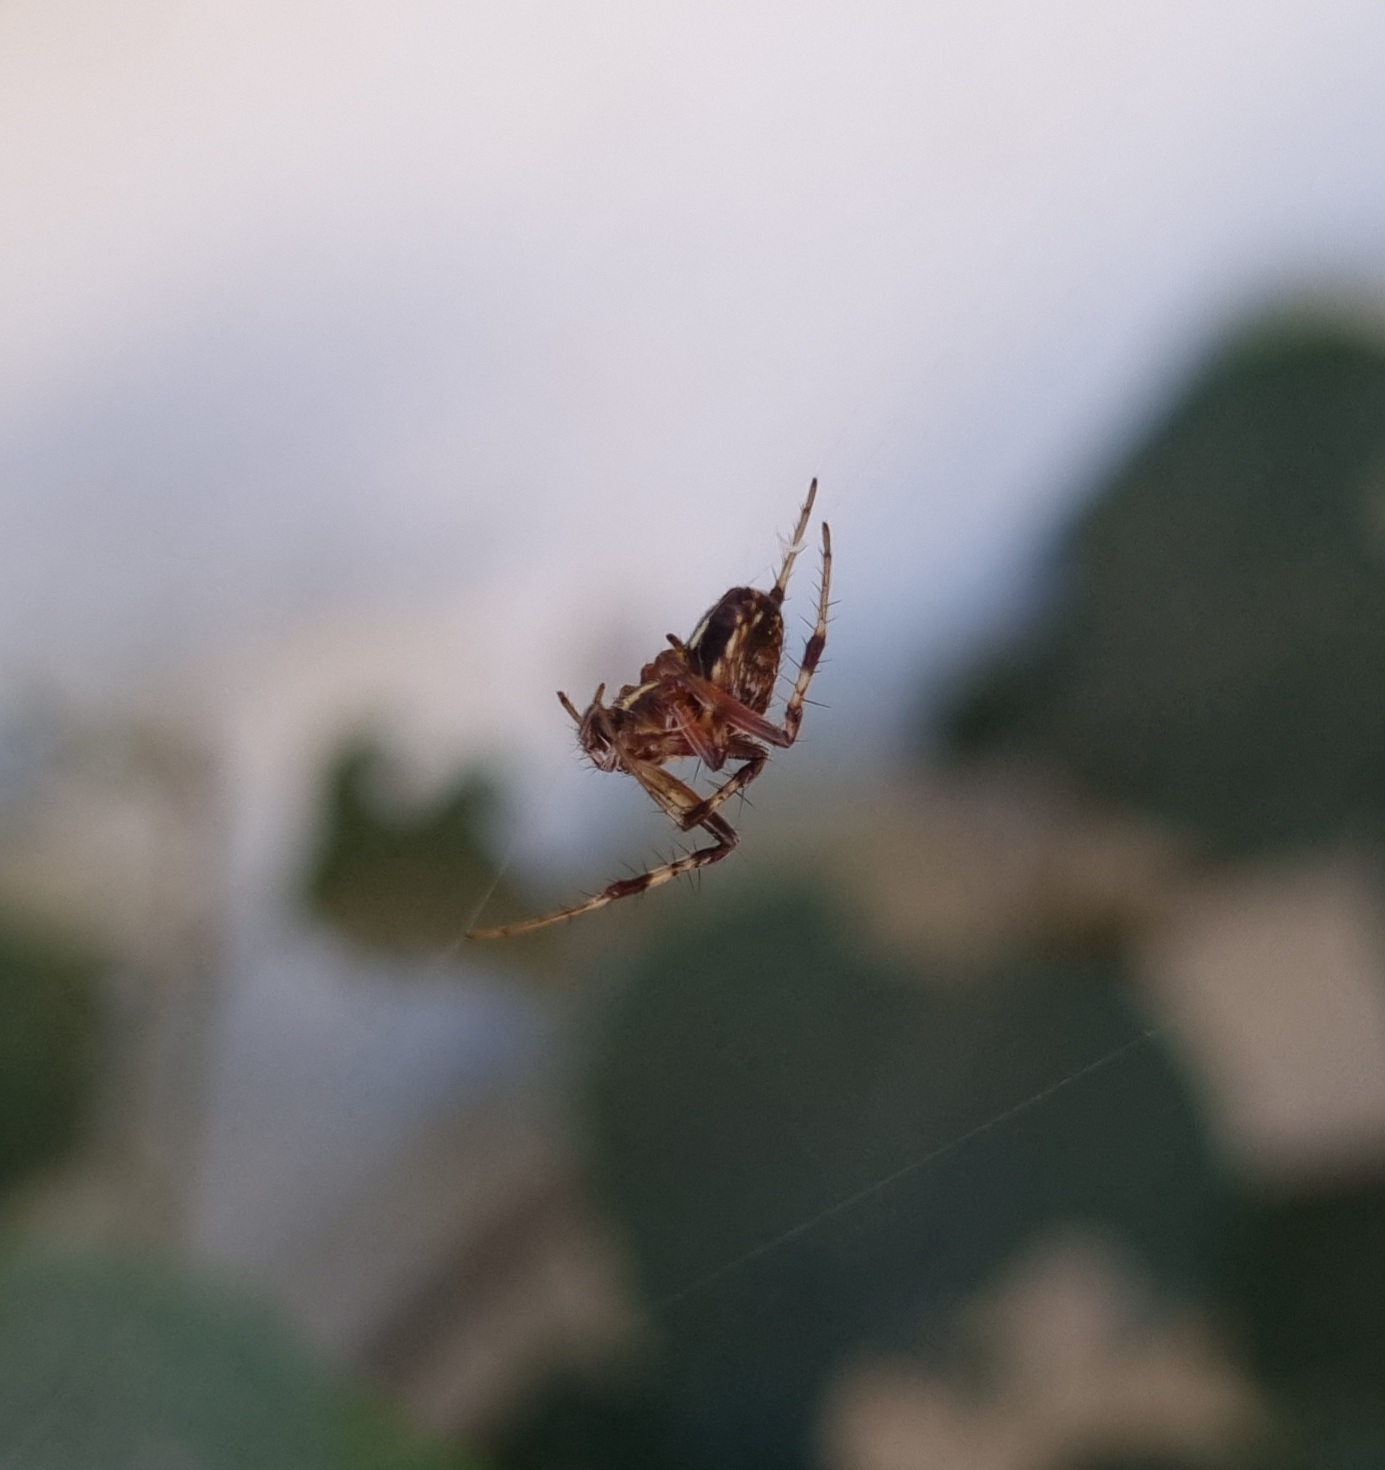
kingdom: Animalia
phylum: Arthropoda
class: Arachnida
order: Araneae
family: Araneidae
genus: Metepeira
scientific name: Metepeira
